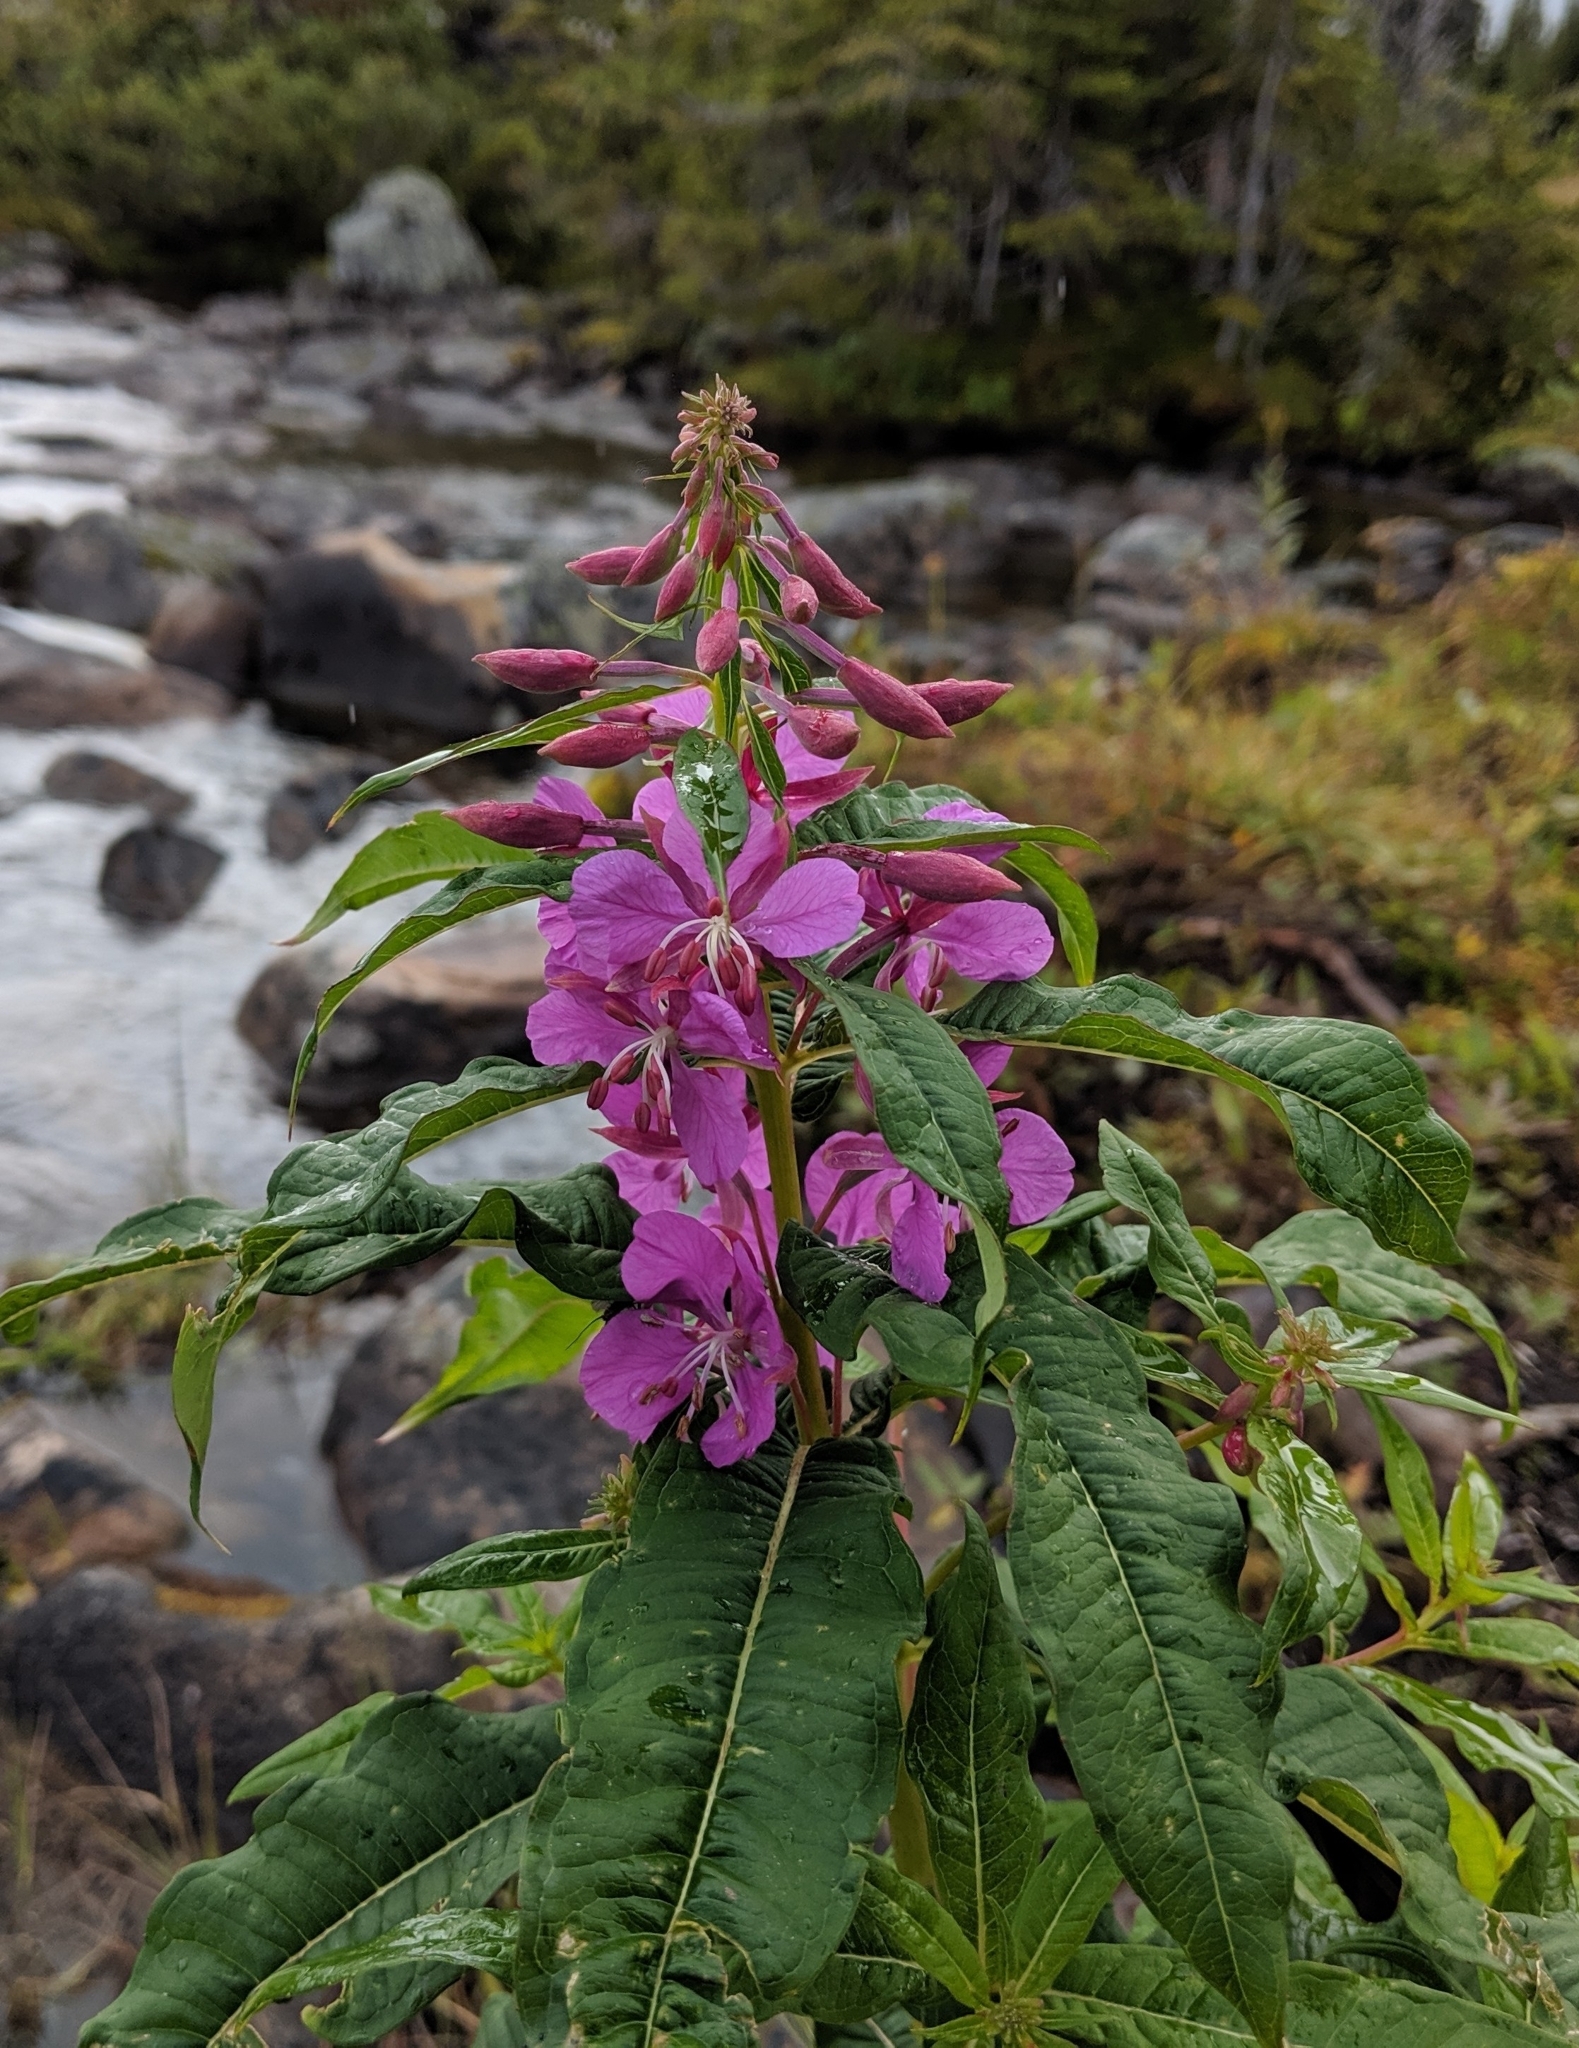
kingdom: Plantae
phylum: Tracheophyta
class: Magnoliopsida
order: Myrtales
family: Onagraceae
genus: Chamaenerion
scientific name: Chamaenerion angustifolium
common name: Fireweed
